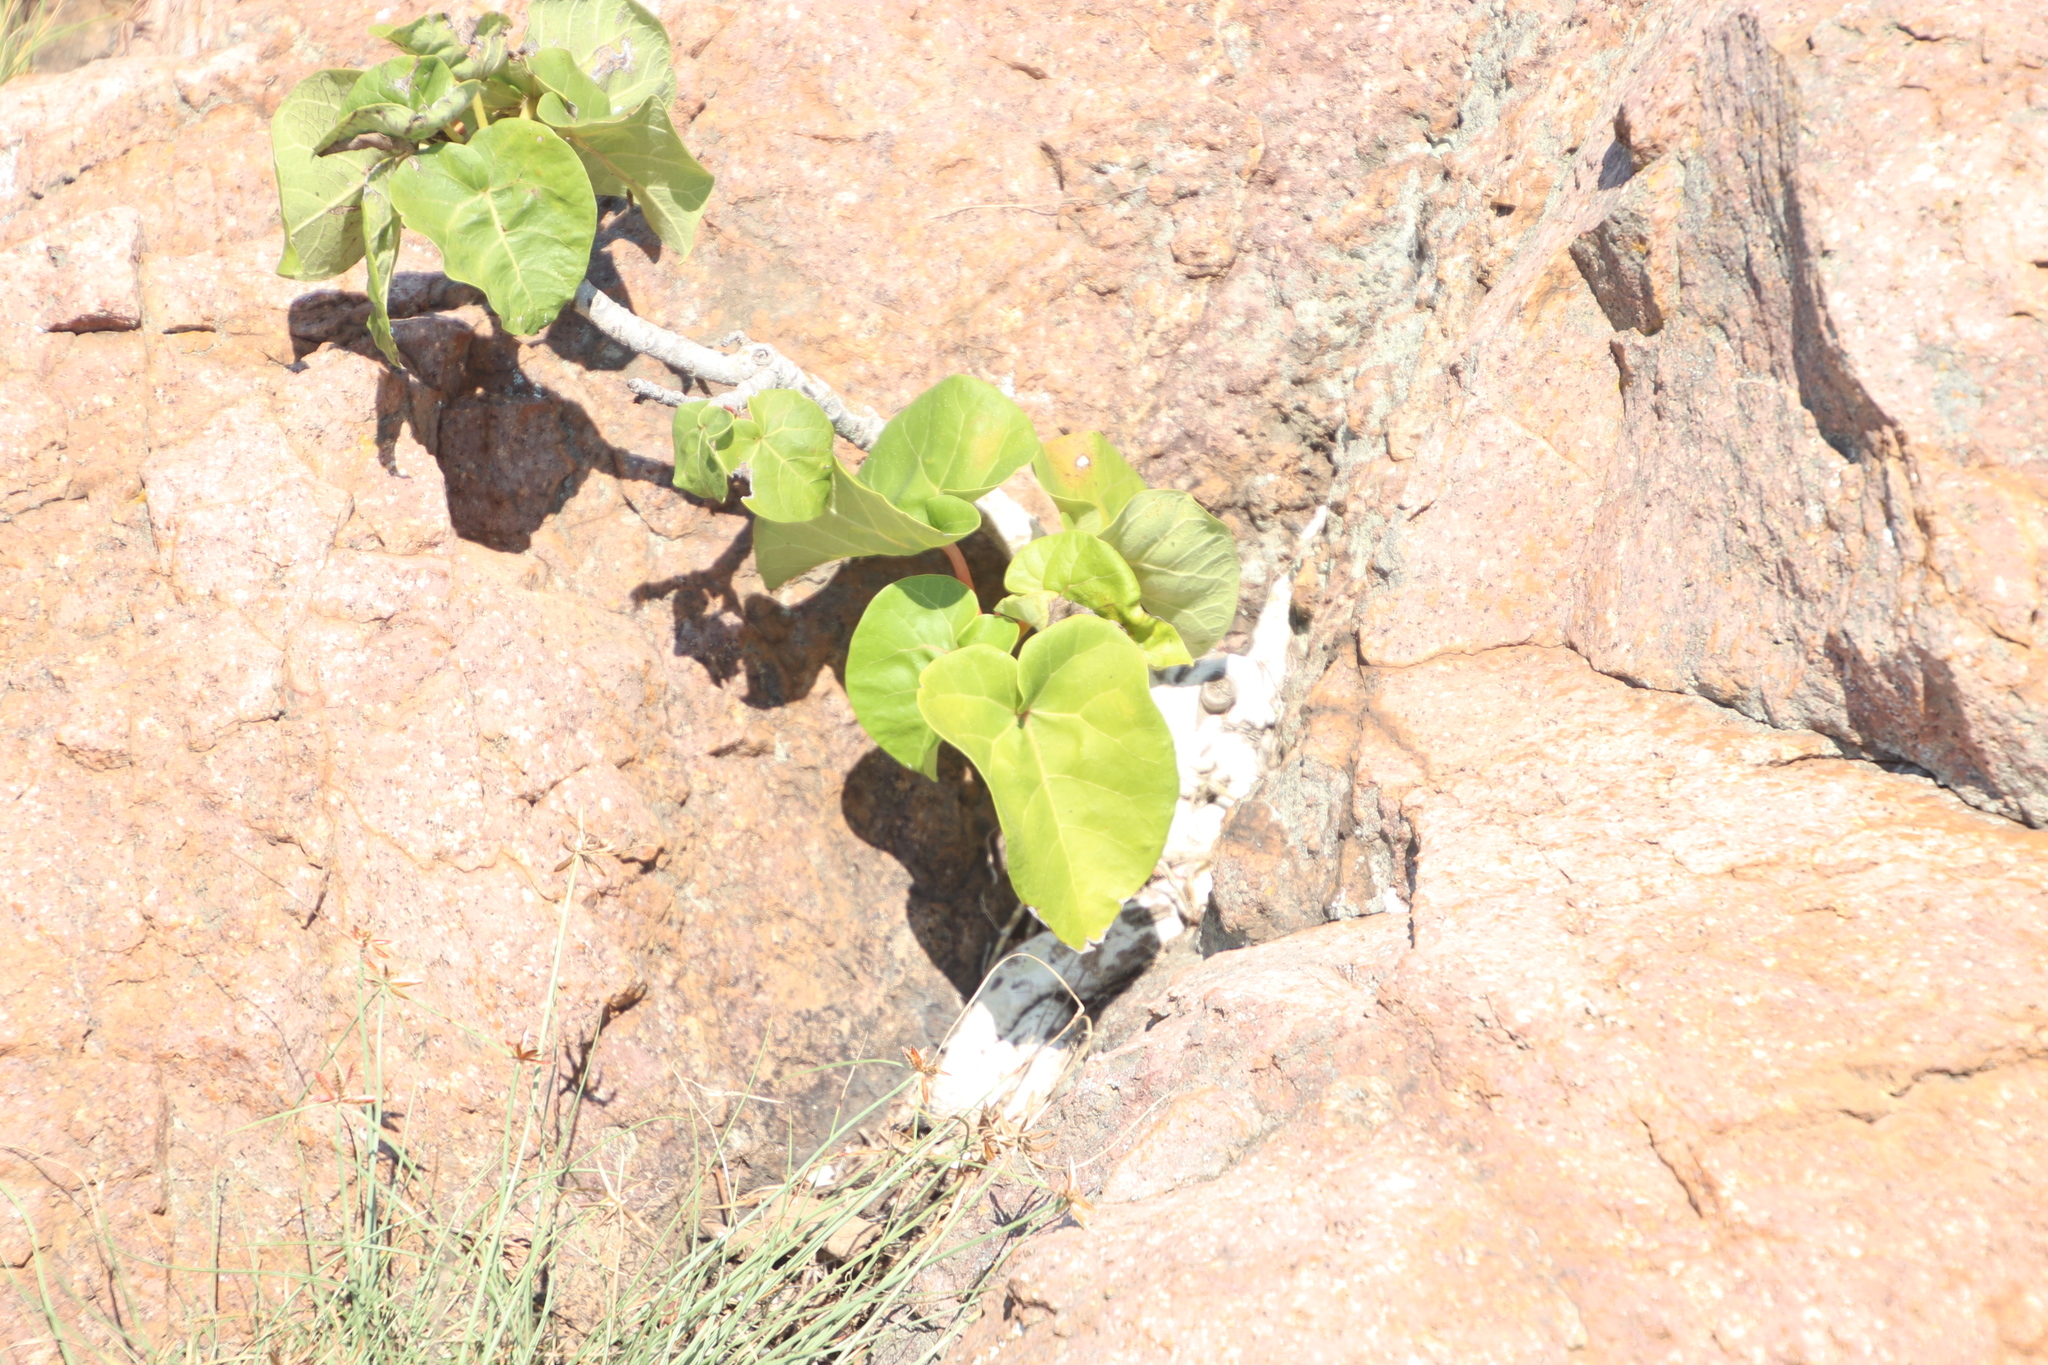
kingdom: Plantae
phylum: Tracheophyta
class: Magnoliopsida
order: Rosales
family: Moraceae
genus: Ficus
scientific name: Ficus abutilifolia
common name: Large-leaved rock fig
